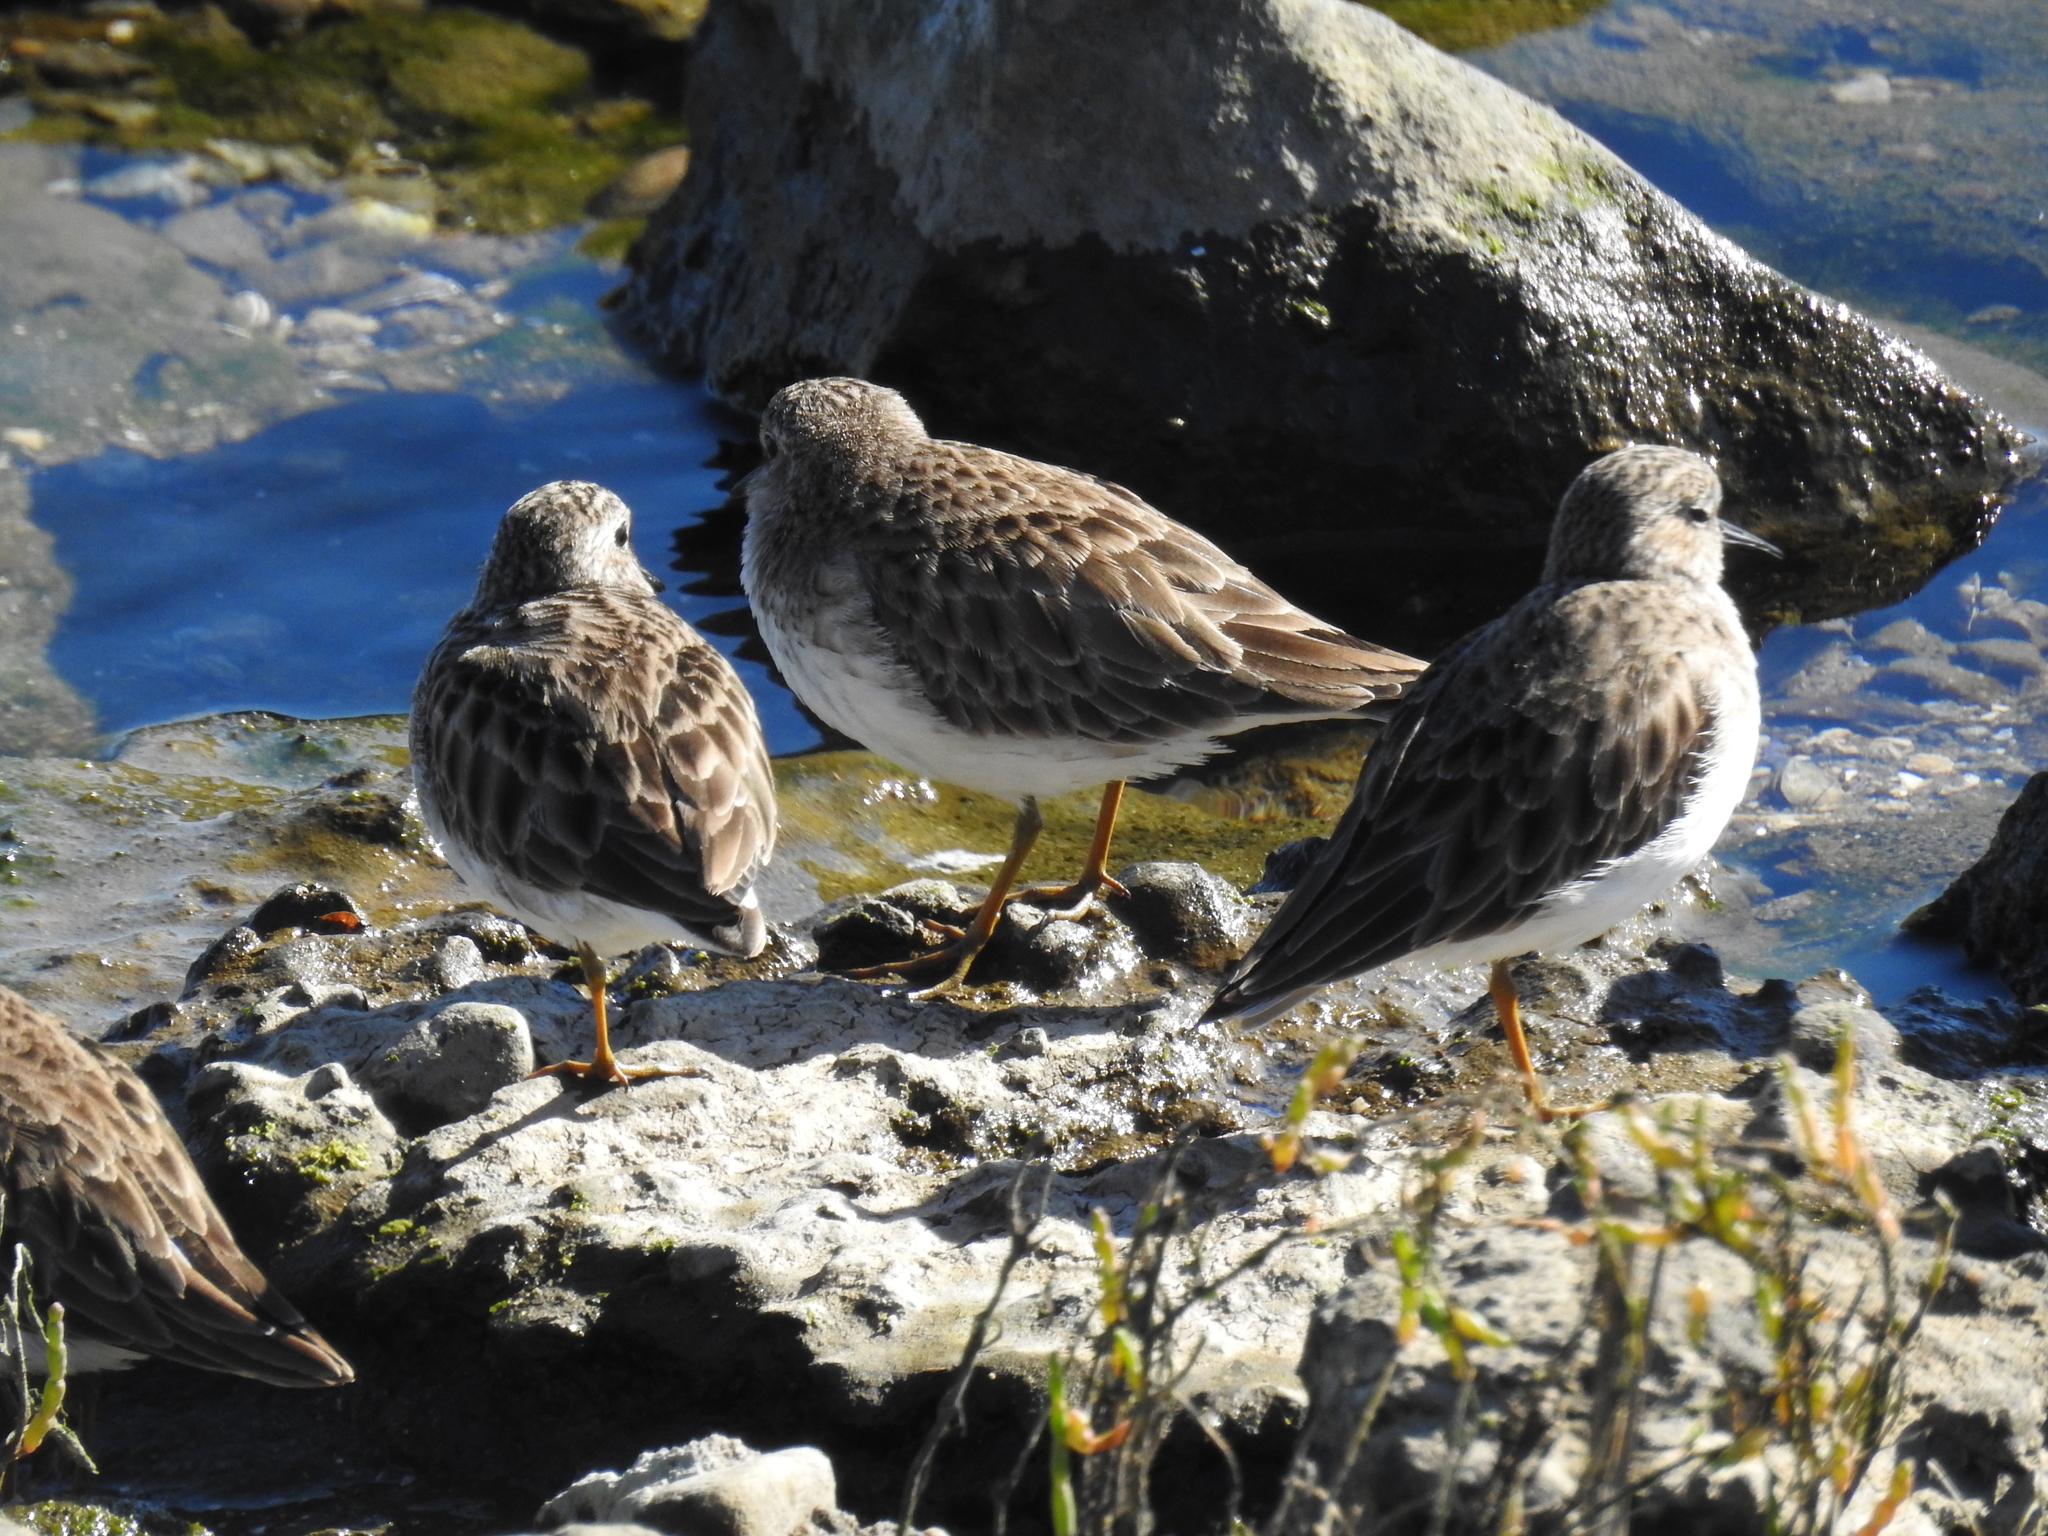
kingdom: Animalia
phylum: Chordata
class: Aves
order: Charadriiformes
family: Scolopacidae
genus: Calidris
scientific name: Calidris minutilla
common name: Least sandpiper
